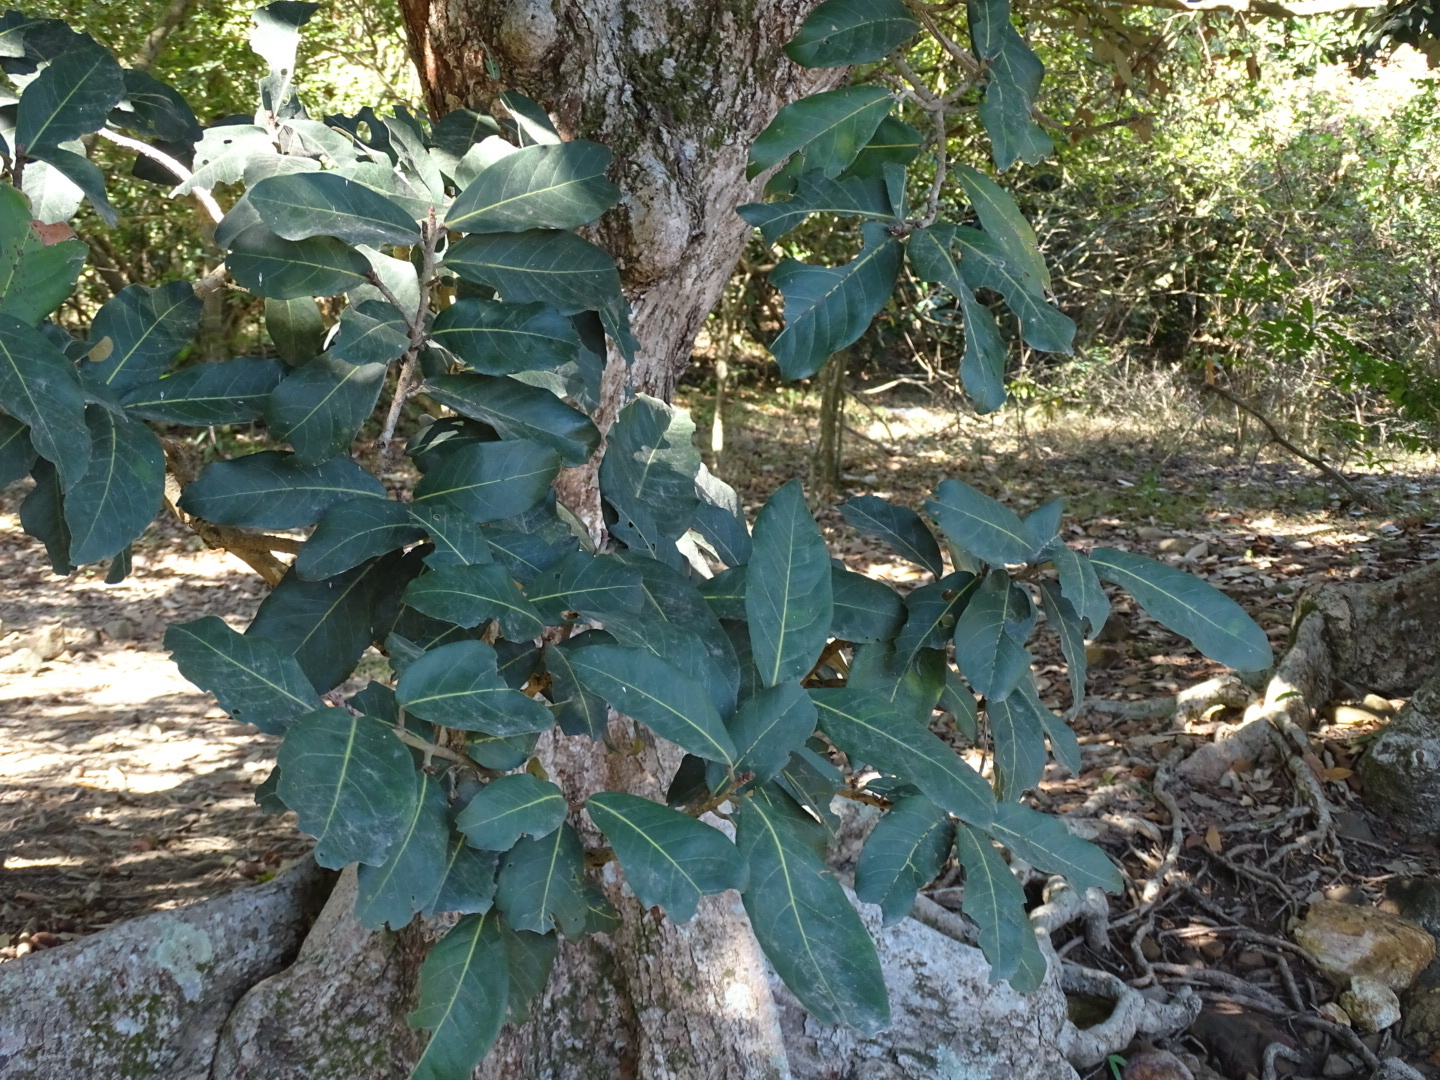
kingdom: Plantae
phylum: Tracheophyta
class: Magnoliopsida
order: Malvales
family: Malvaceae
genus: Heritiera
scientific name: Heritiera littoralis
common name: Looking-glass mangrove
